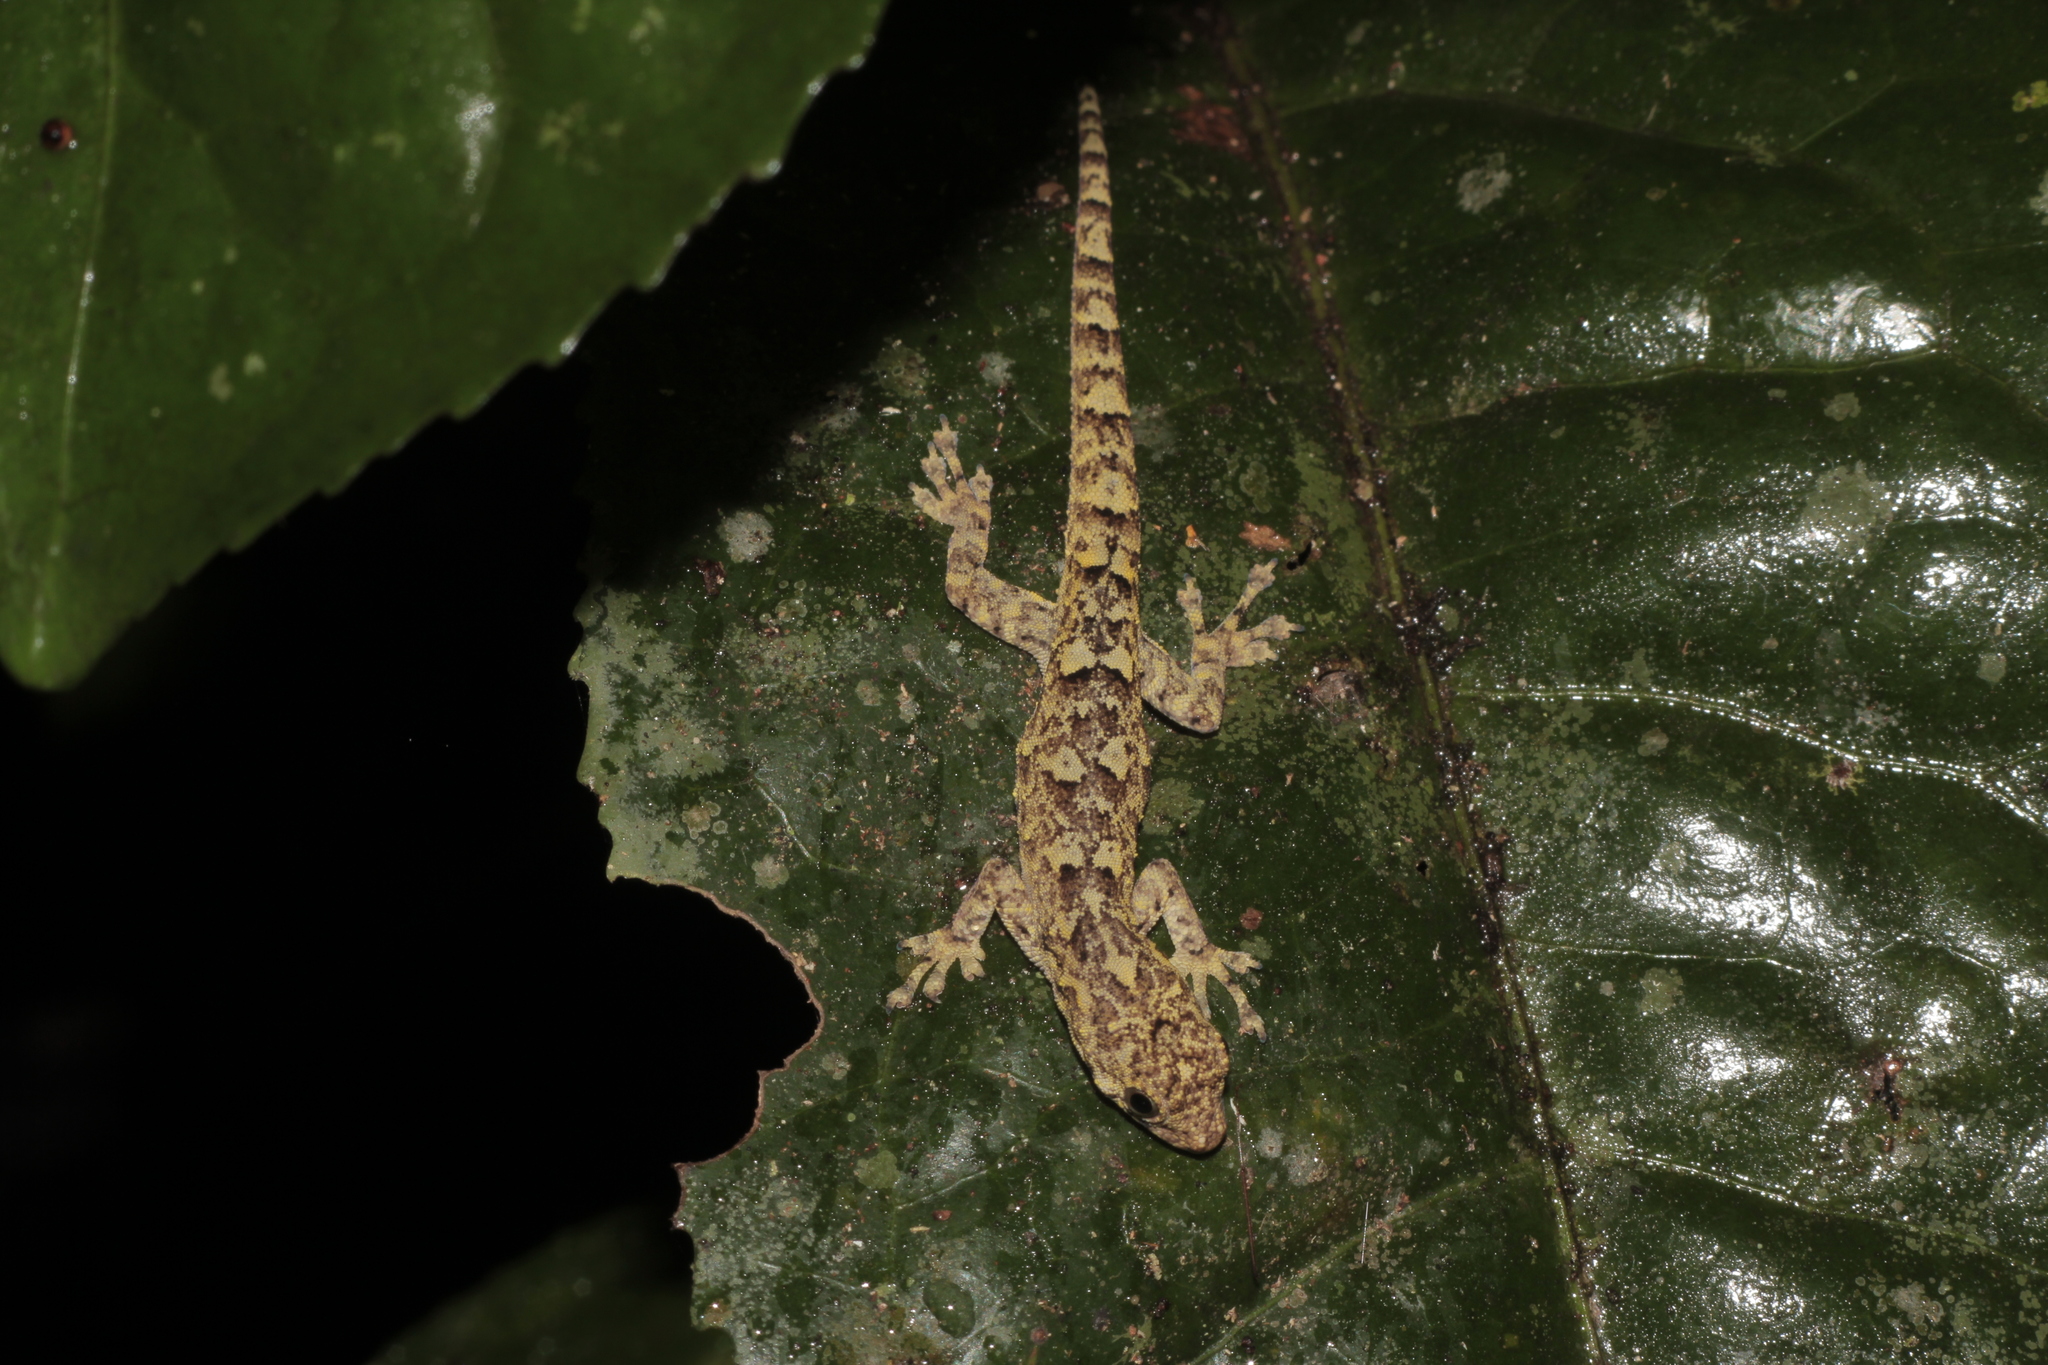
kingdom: Animalia
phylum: Chordata
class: Squamata
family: Gekkonidae
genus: Lygodactylus
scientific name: Lygodactylus guibei
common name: Guibé’s dwarf day gecko
